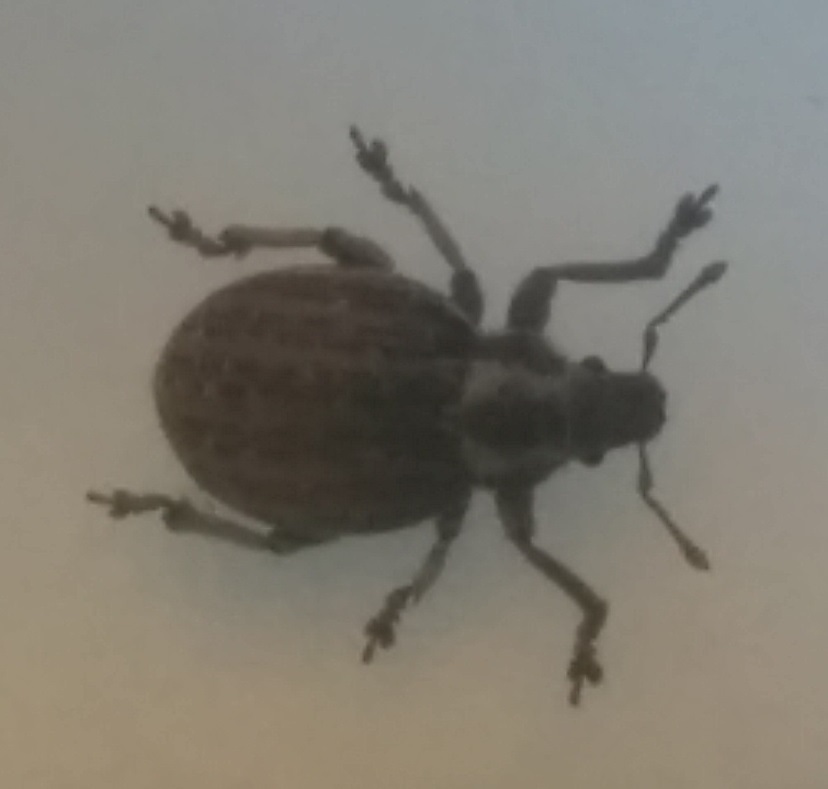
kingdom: Animalia
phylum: Arthropoda
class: Insecta
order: Coleoptera
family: Curculionidae
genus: Philopedon
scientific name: Philopedon plagiatum
